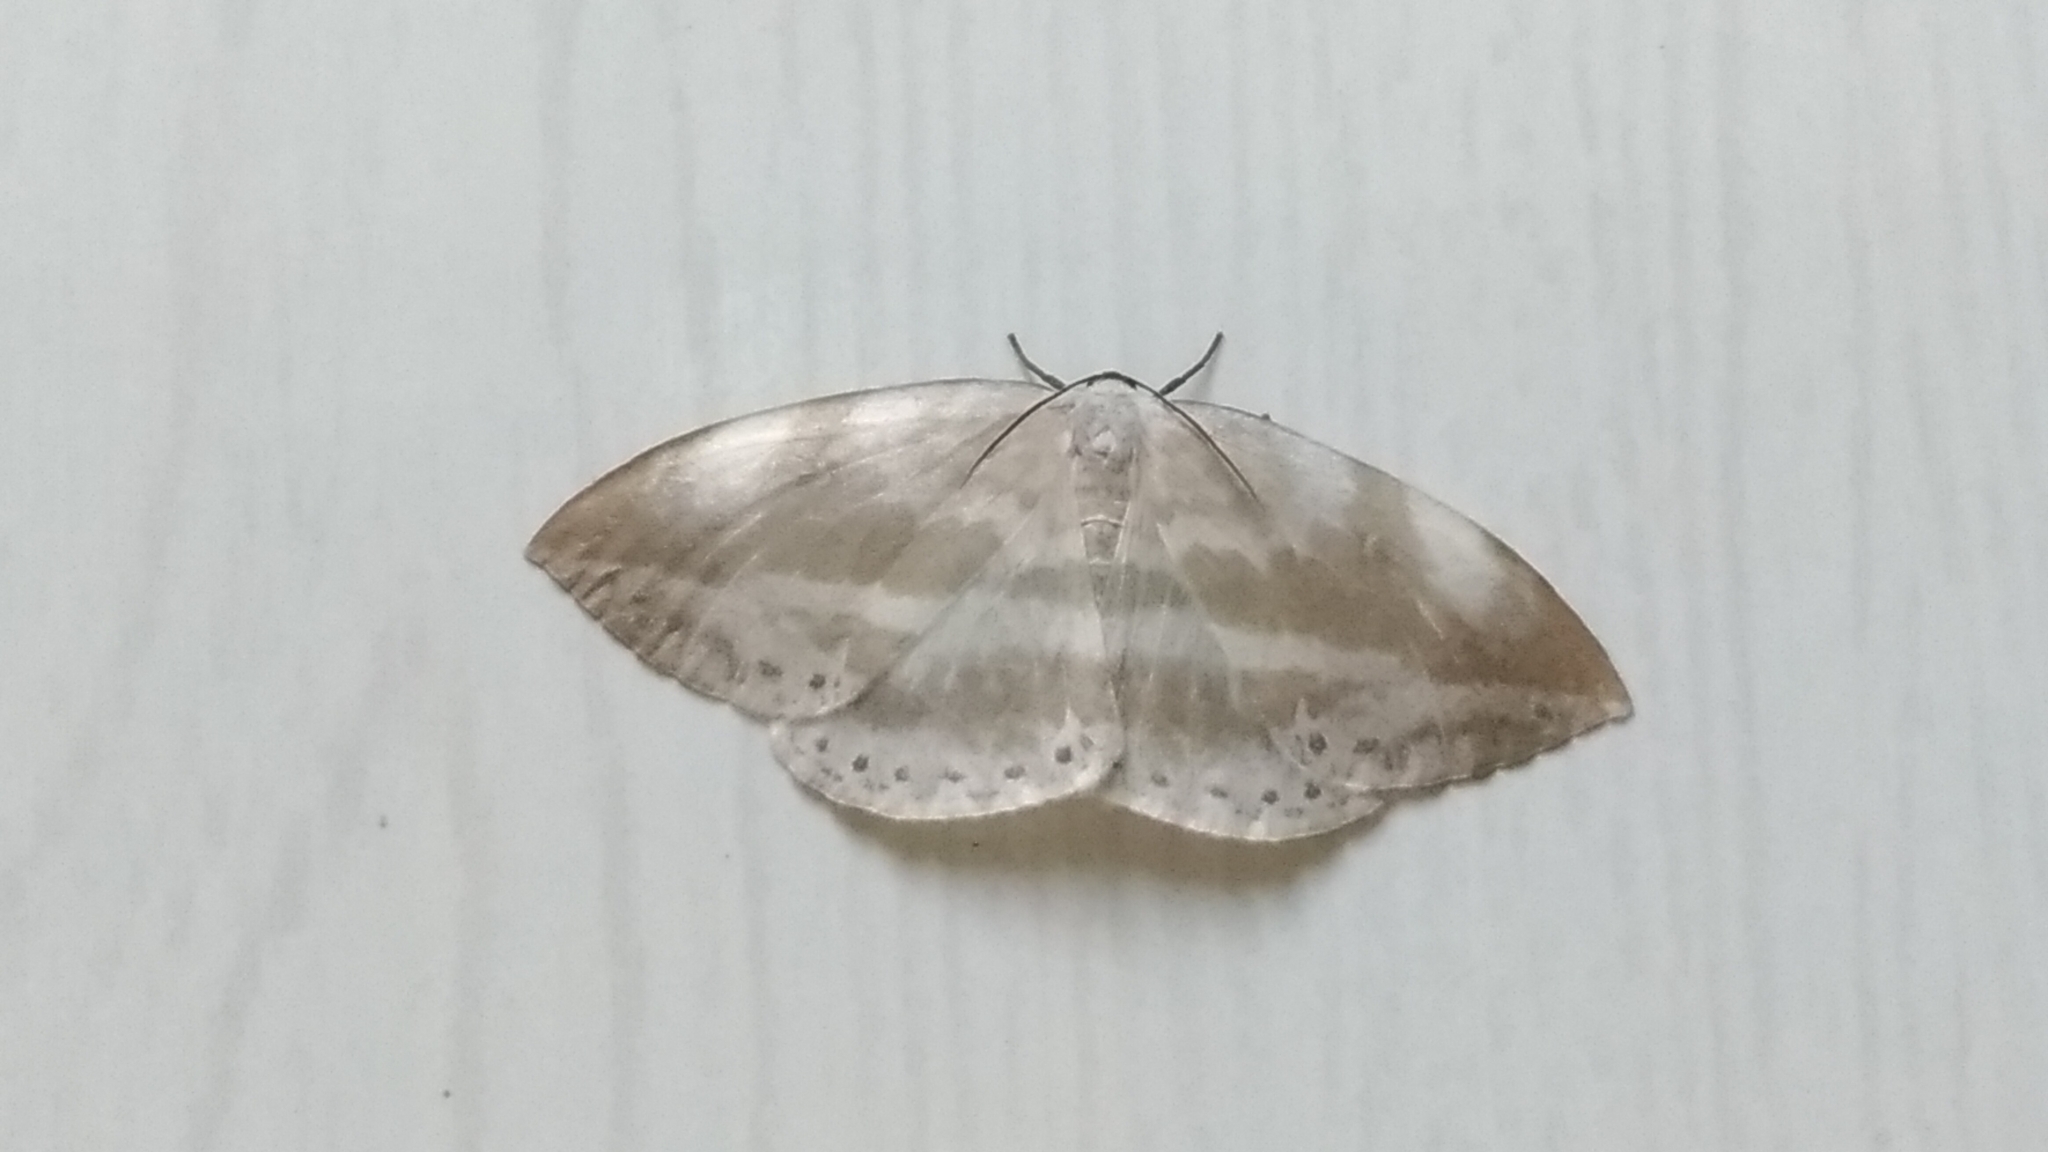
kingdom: Animalia
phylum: Arthropoda
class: Insecta
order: Lepidoptera
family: Drepanidae
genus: Cyclidia
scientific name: Cyclidia substigmaria
